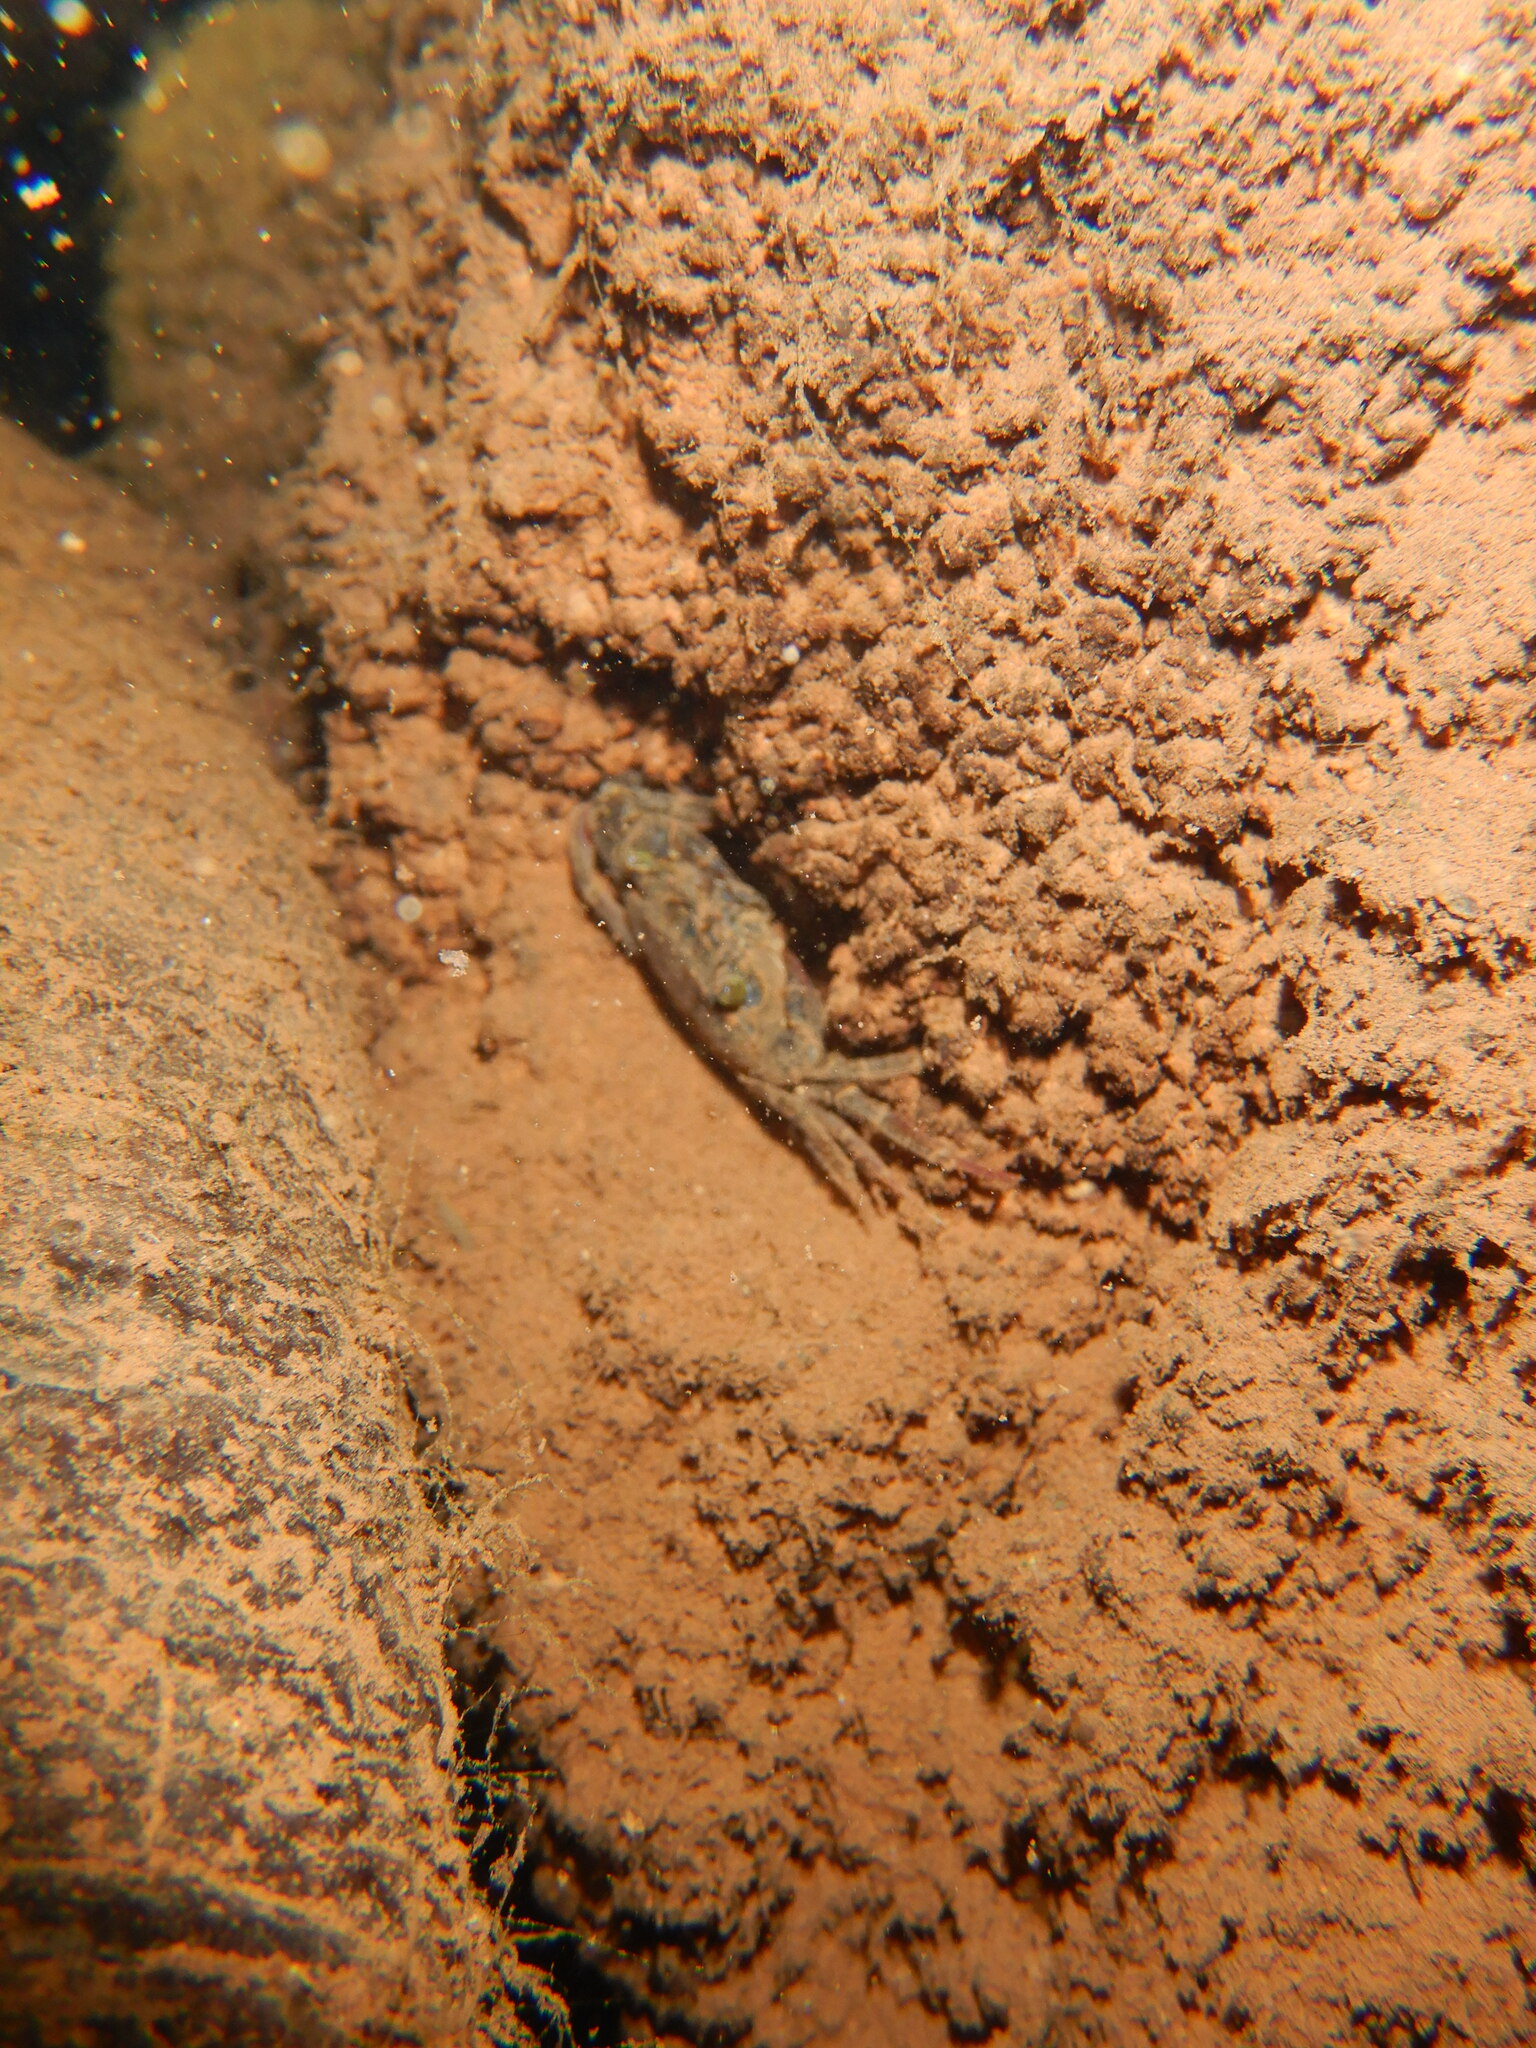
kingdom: Animalia
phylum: Arthropoda
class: Malacostraca
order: Decapoda
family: Potamonautidae
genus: Potamonautes
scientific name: Potamonautes sidneyi
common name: Natal river crab
